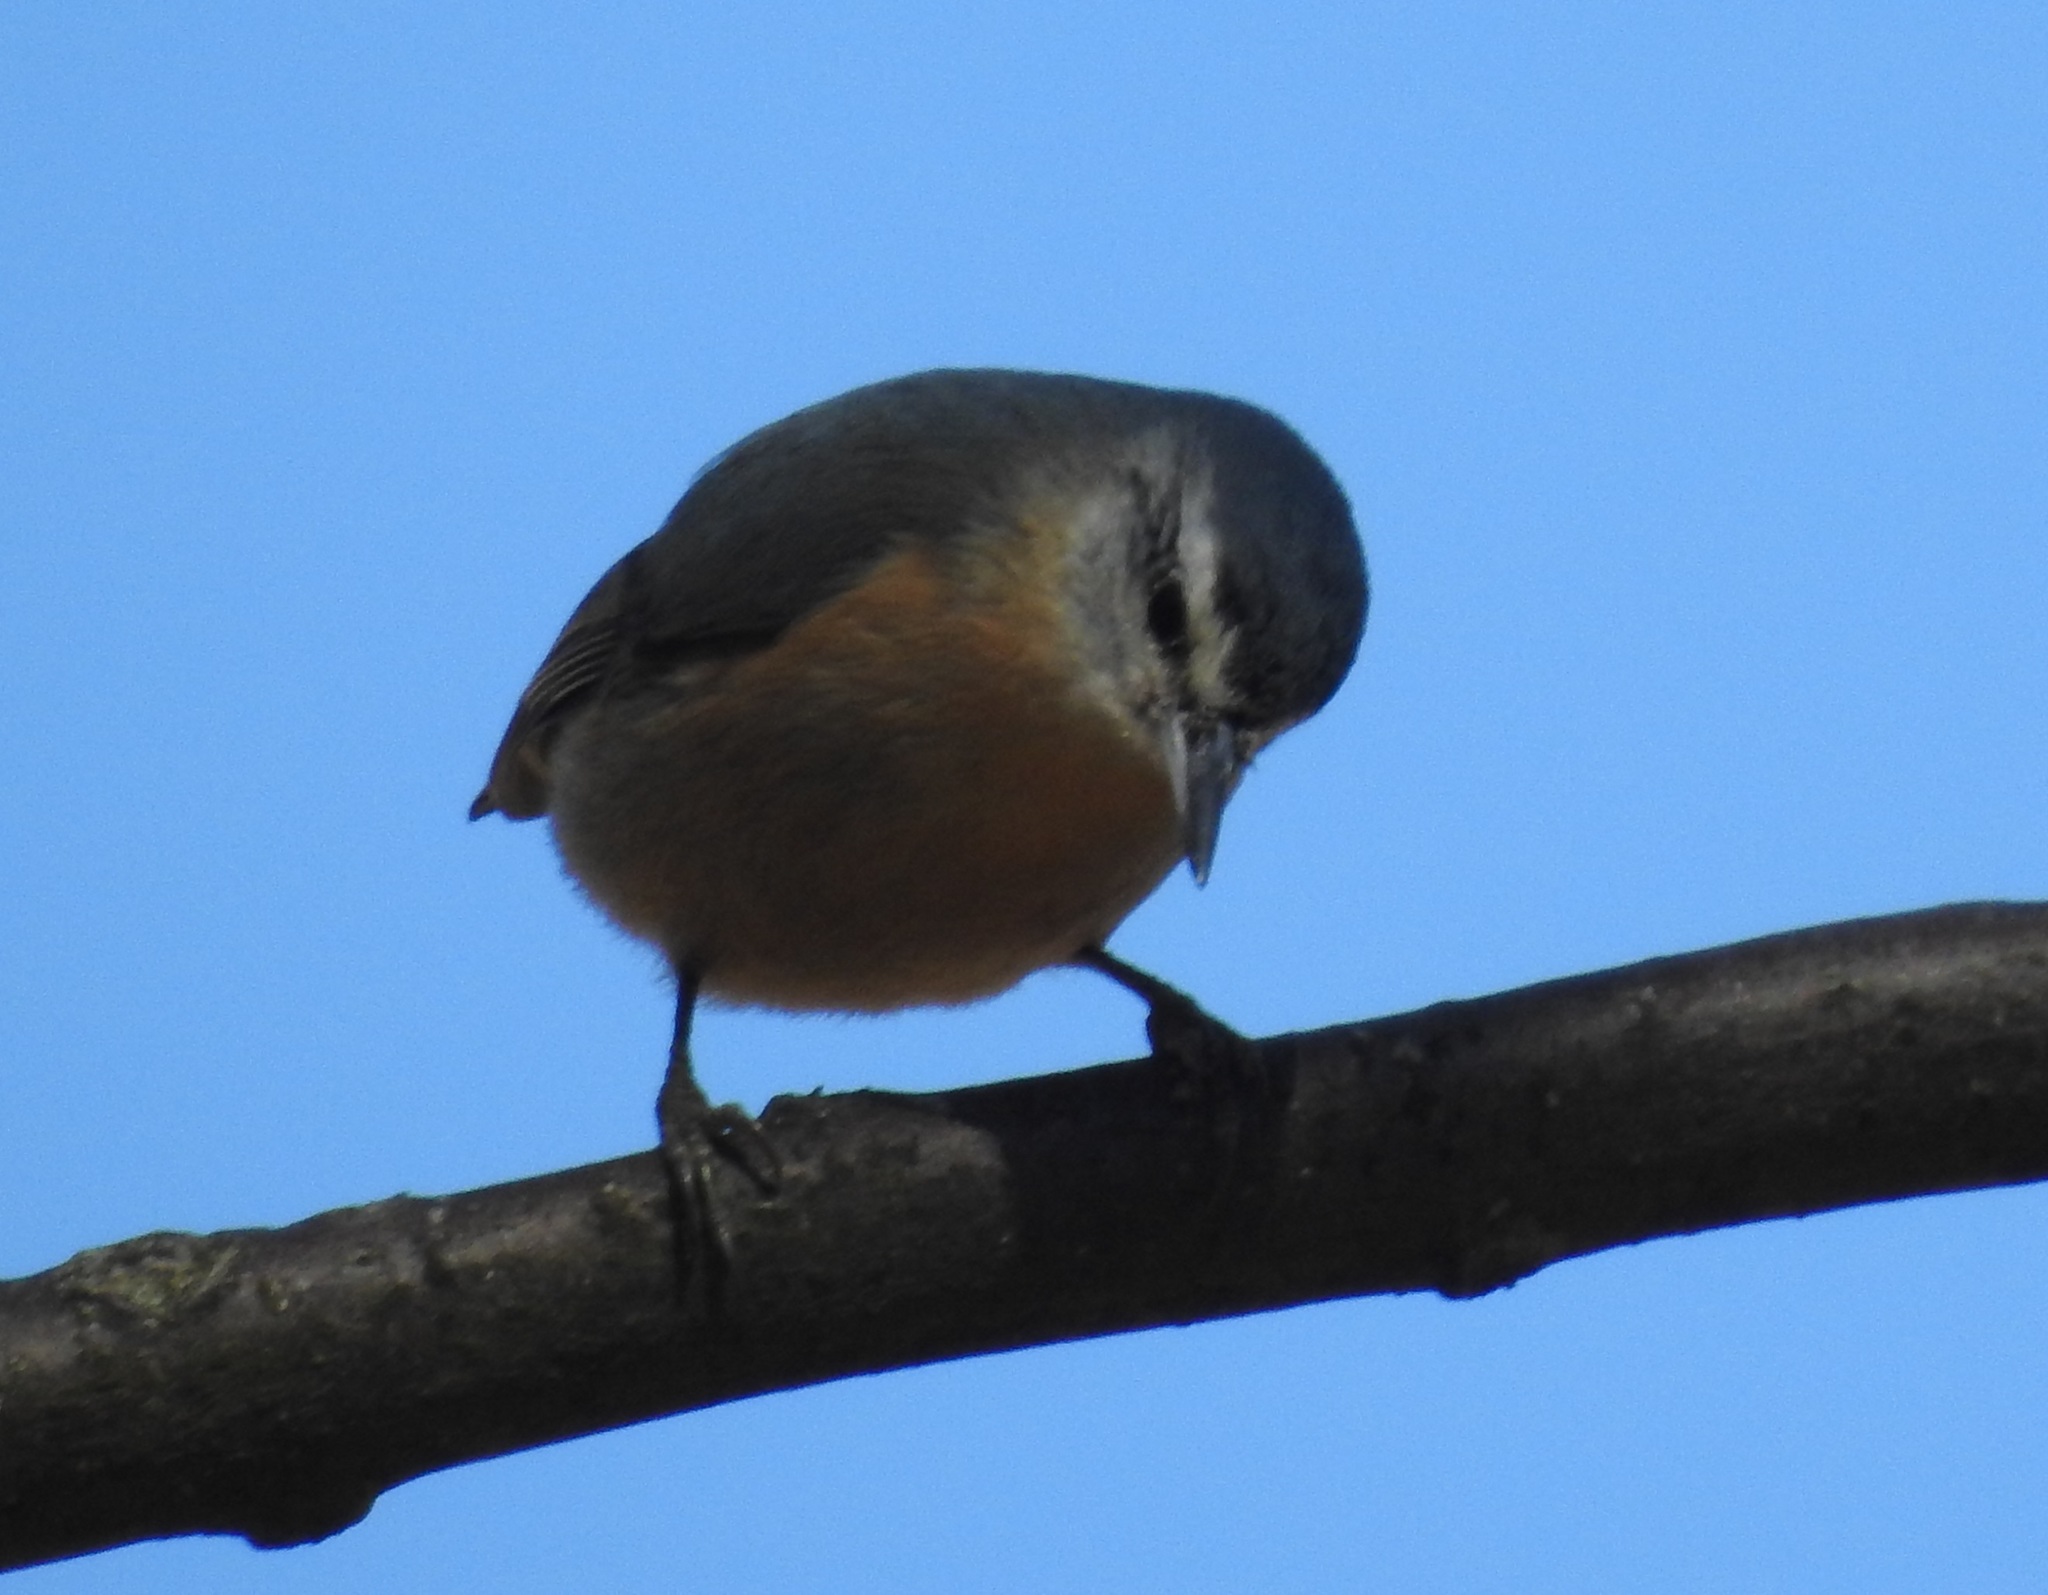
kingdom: Animalia
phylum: Chordata
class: Aves
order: Passeriformes
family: Sittidae
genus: Sitta
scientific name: Sitta ledanti
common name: Algerian nuthatch
